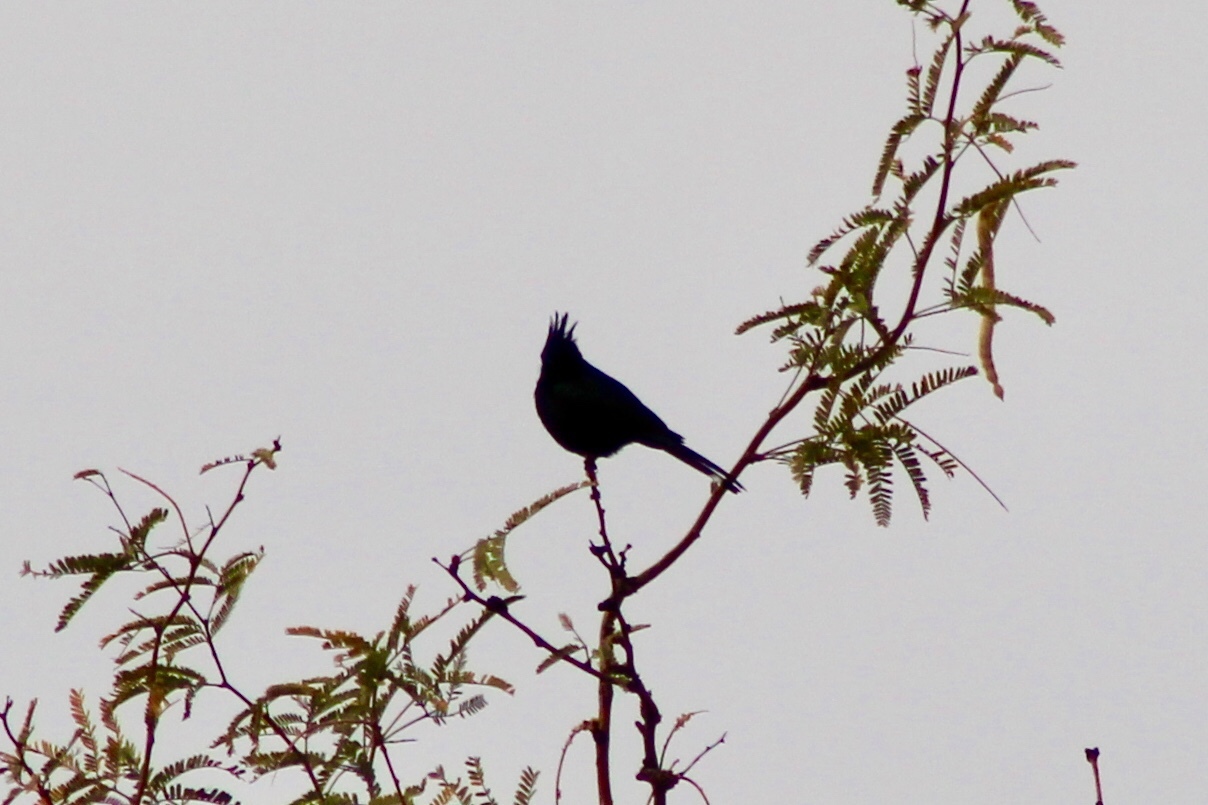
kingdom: Animalia
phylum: Chordata
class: Aves
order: Passeriformes
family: Ptilogonatidae
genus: Phainopepla
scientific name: Phainopepla nitens
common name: Phainopepla
